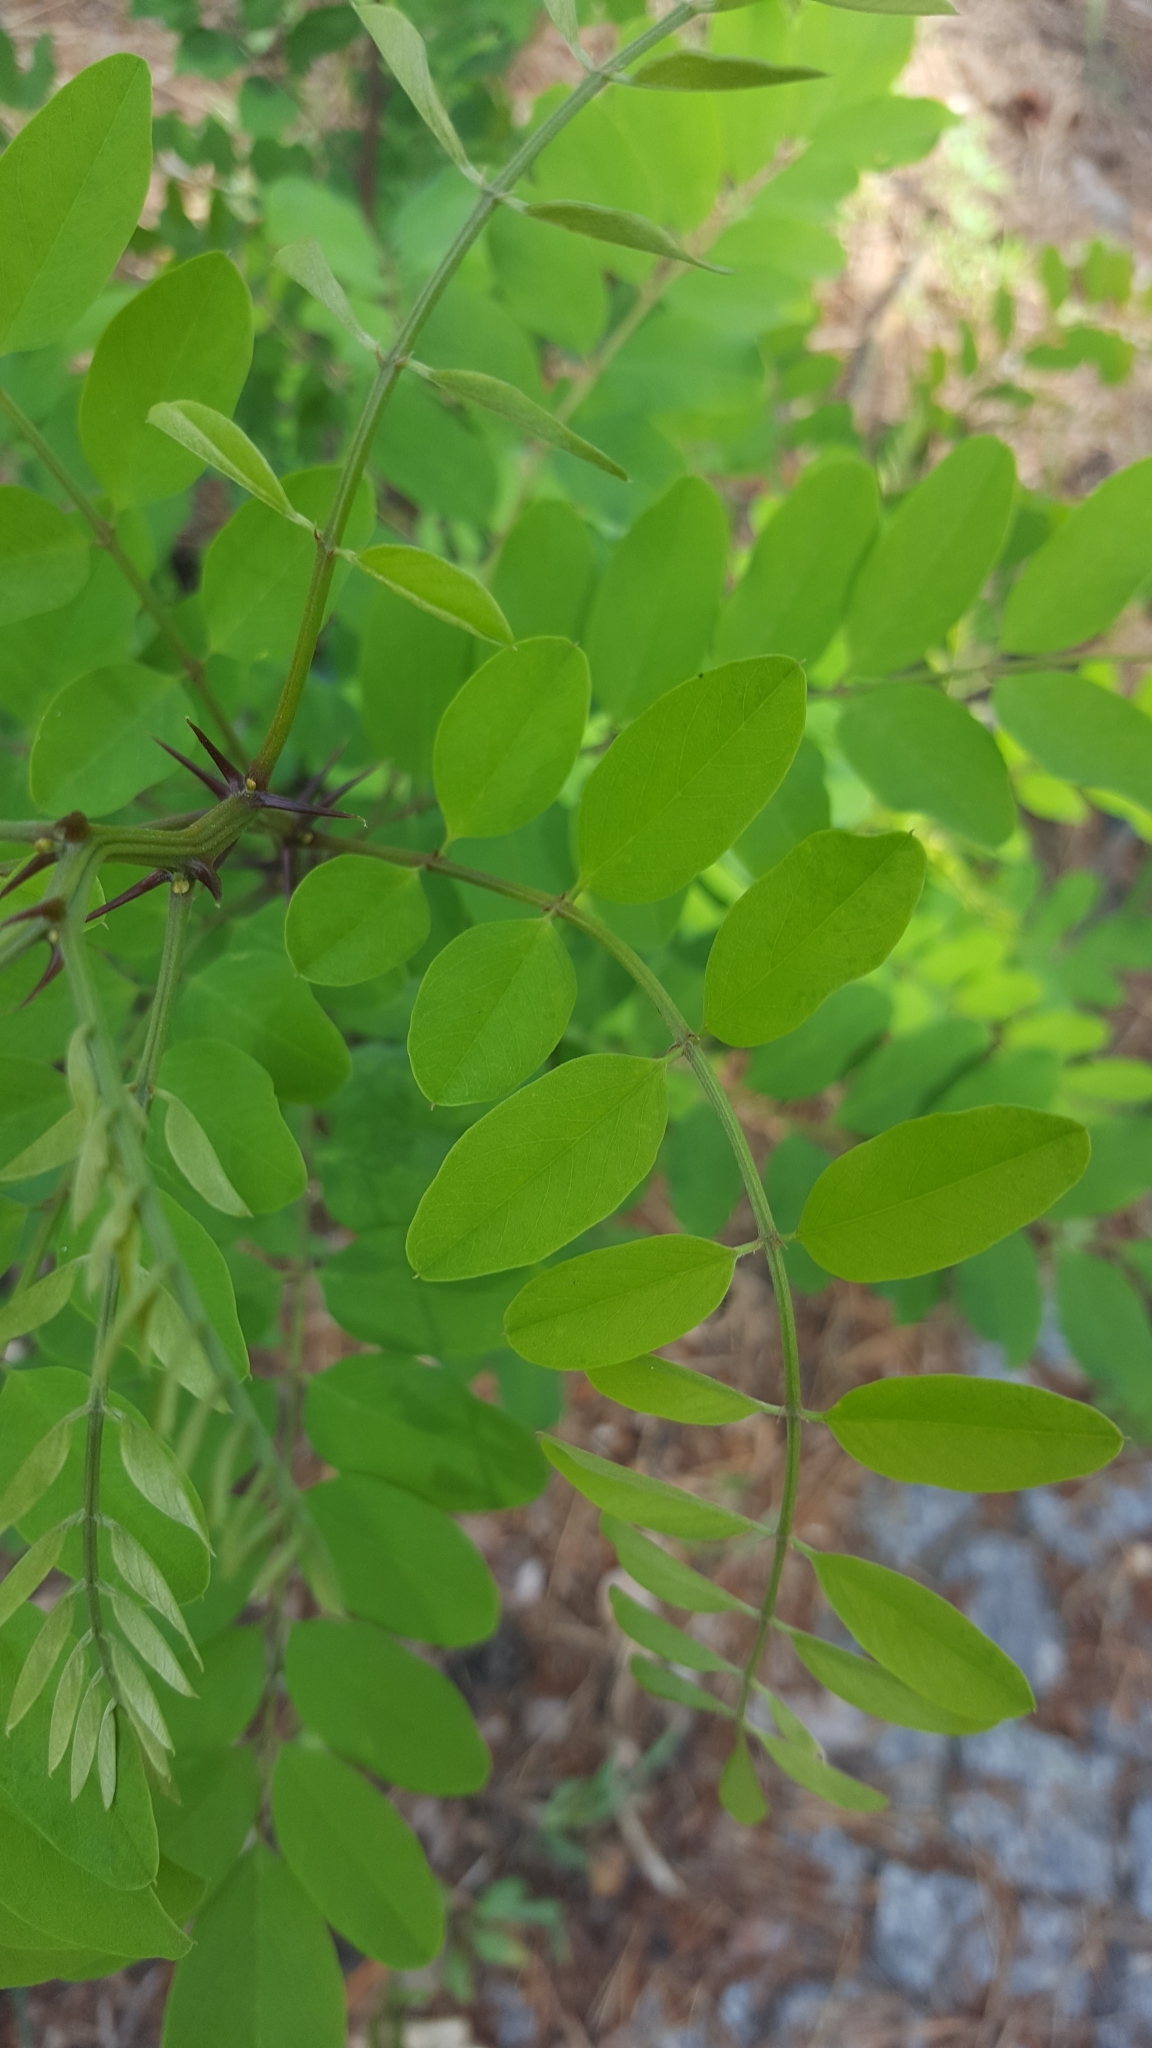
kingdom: Plantae
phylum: Tracheophyta
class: Magnoliopsida
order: Fabales
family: Fabaceae
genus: Robinia
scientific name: Robinia pseudoacacia
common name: Black locust
